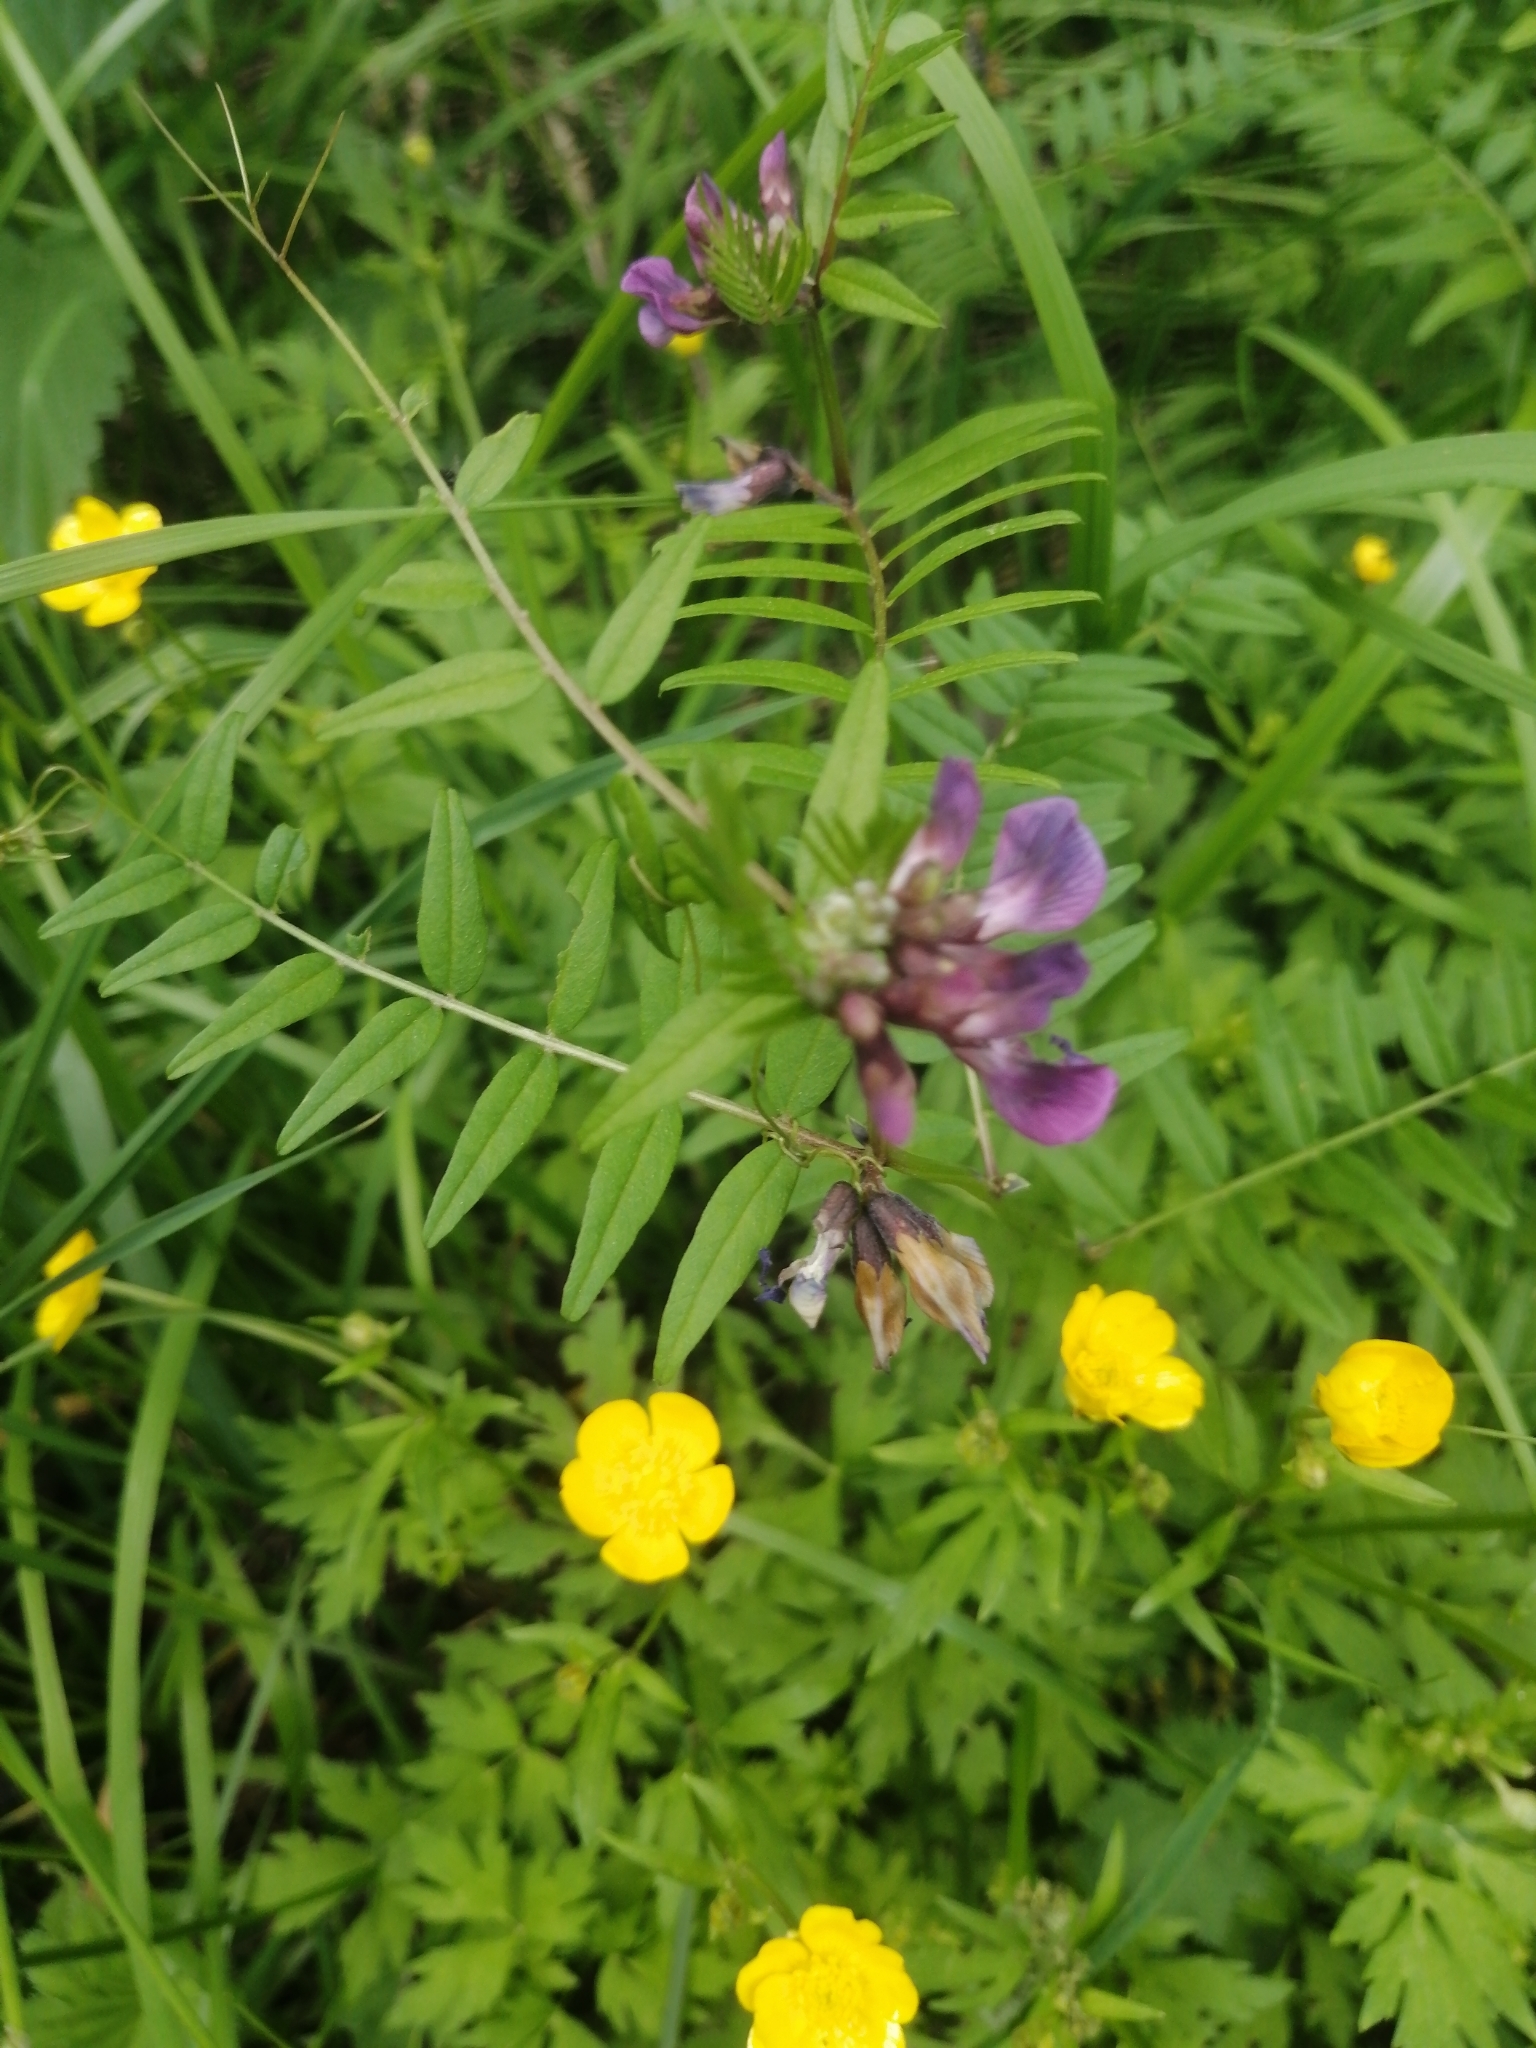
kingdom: Plantae
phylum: Tracheophyta
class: Magnoliopsida
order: Fabales
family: Fabaceae
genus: Vicia
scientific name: Vicia sepium
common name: Bush vetch
